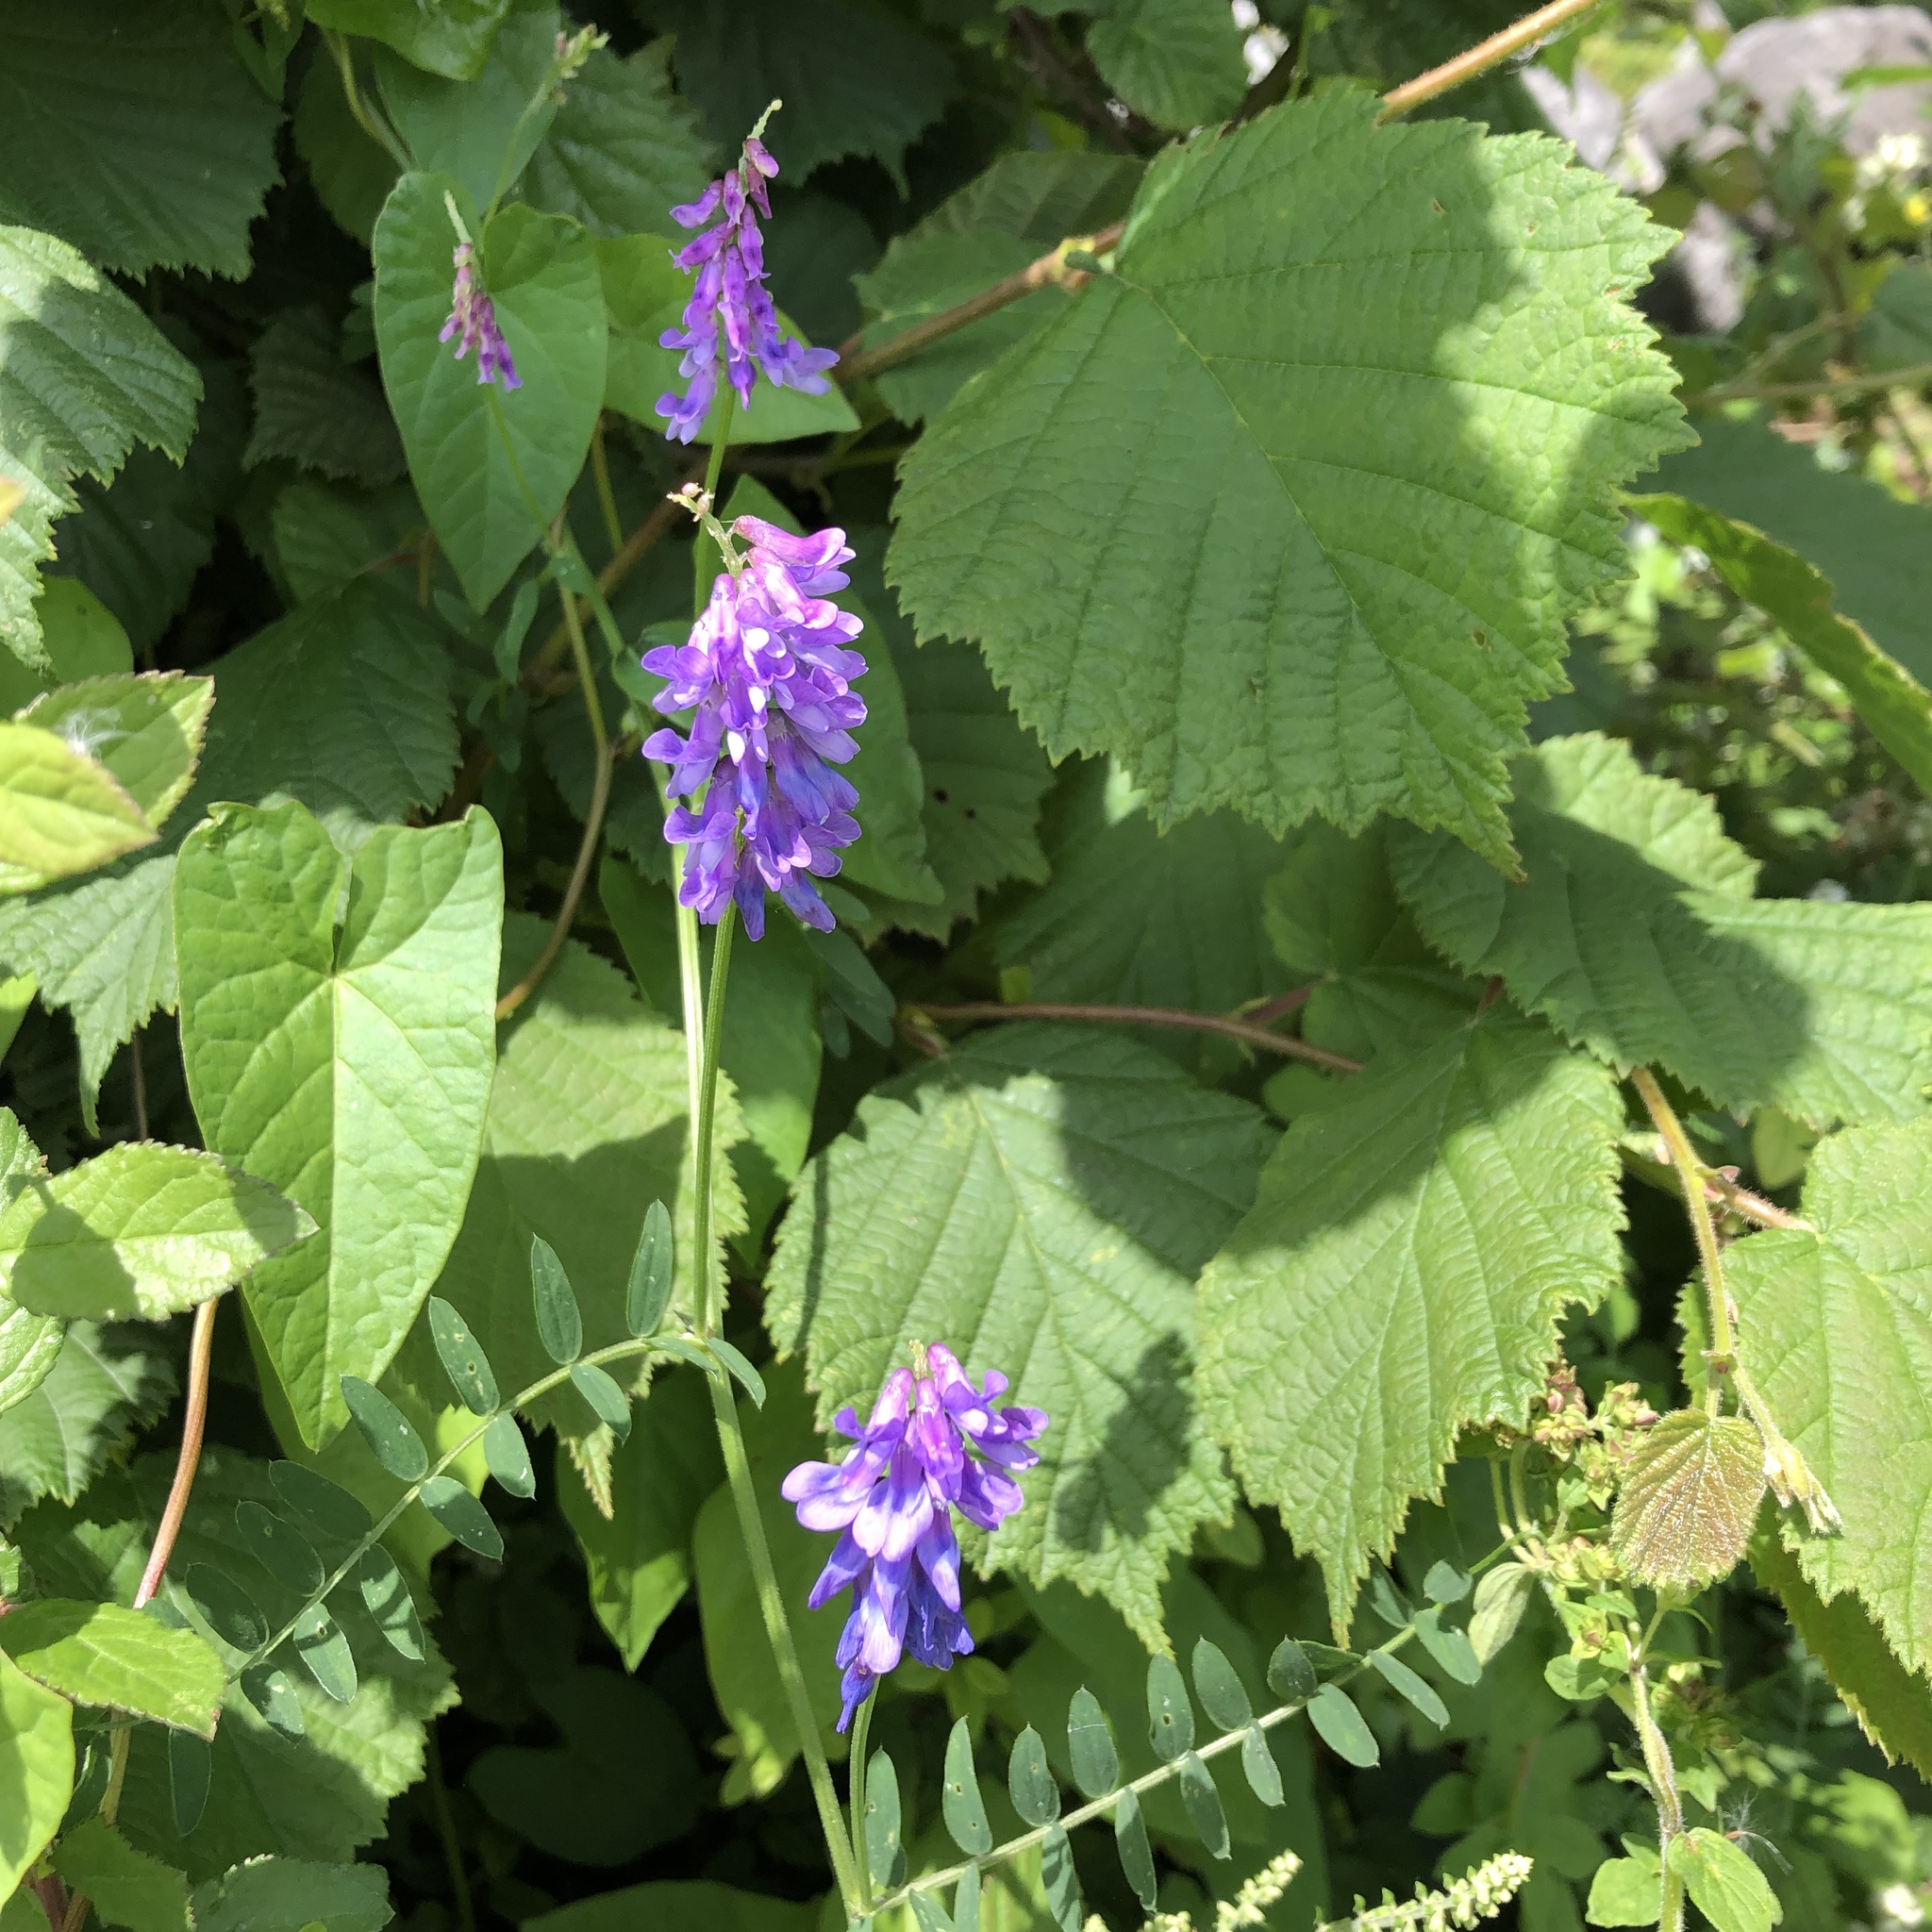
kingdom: Plantae
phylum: Tracheophyta
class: Magnoliopsida
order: Fabales
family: Fabaceae
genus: Vicia
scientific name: Vicia cracca
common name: Bird vetch
